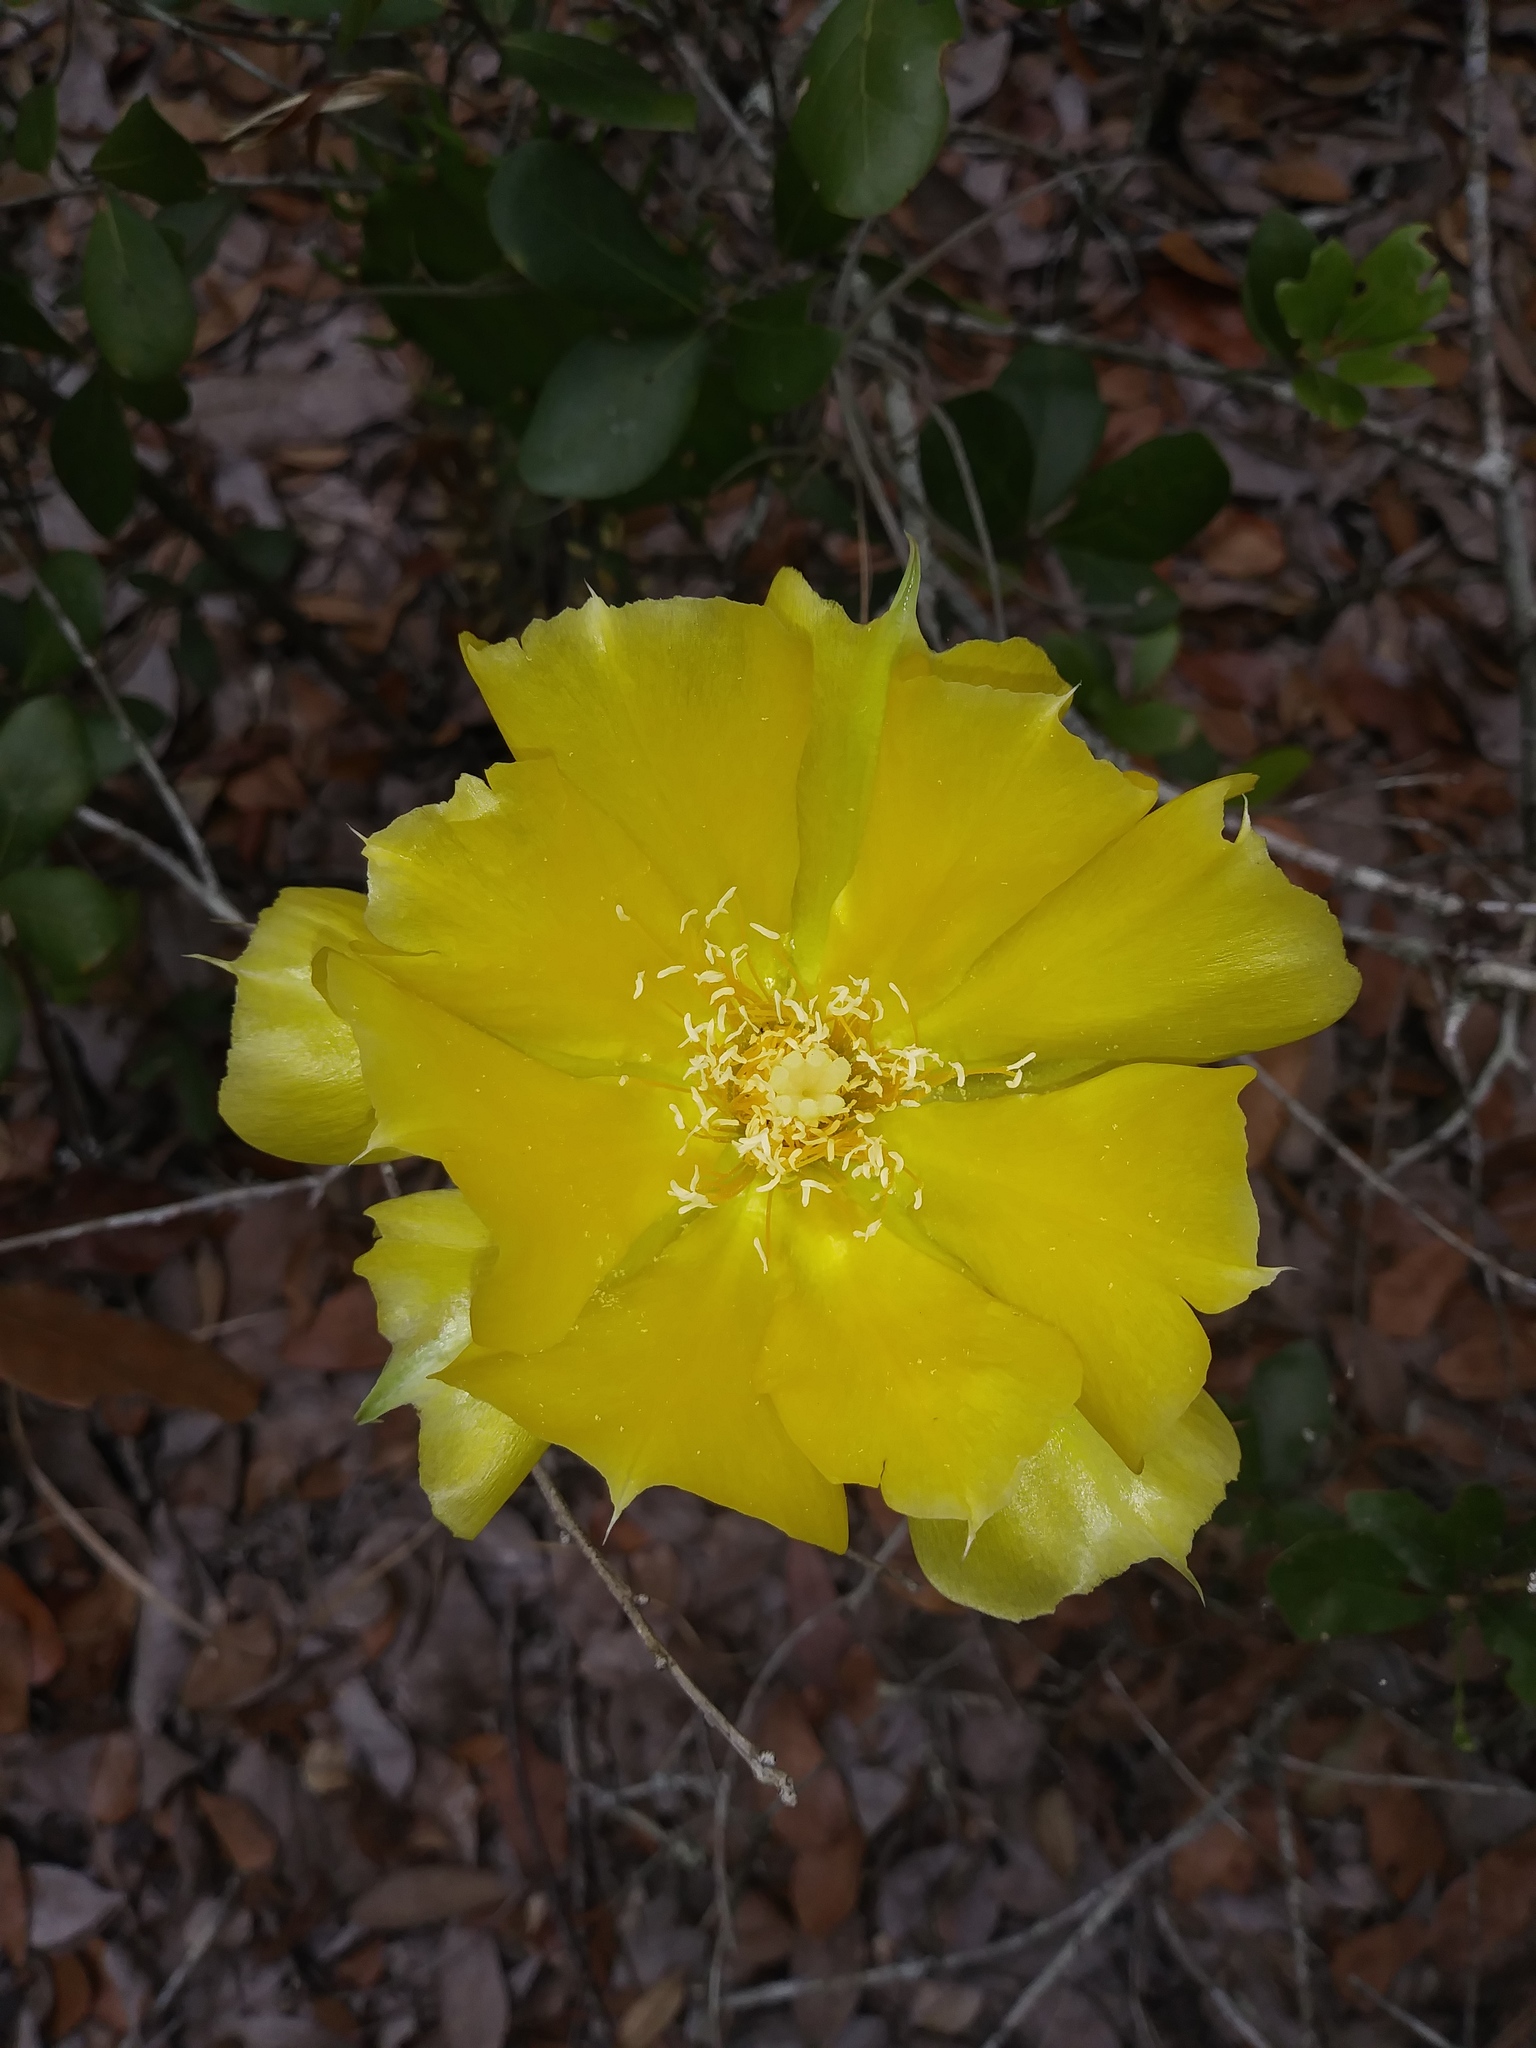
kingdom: Plantae
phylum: Tracheophyta
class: Magnoliopsida
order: Caryophyllales
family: Cactaceae
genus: Opuntia
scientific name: Opuntia austrina
